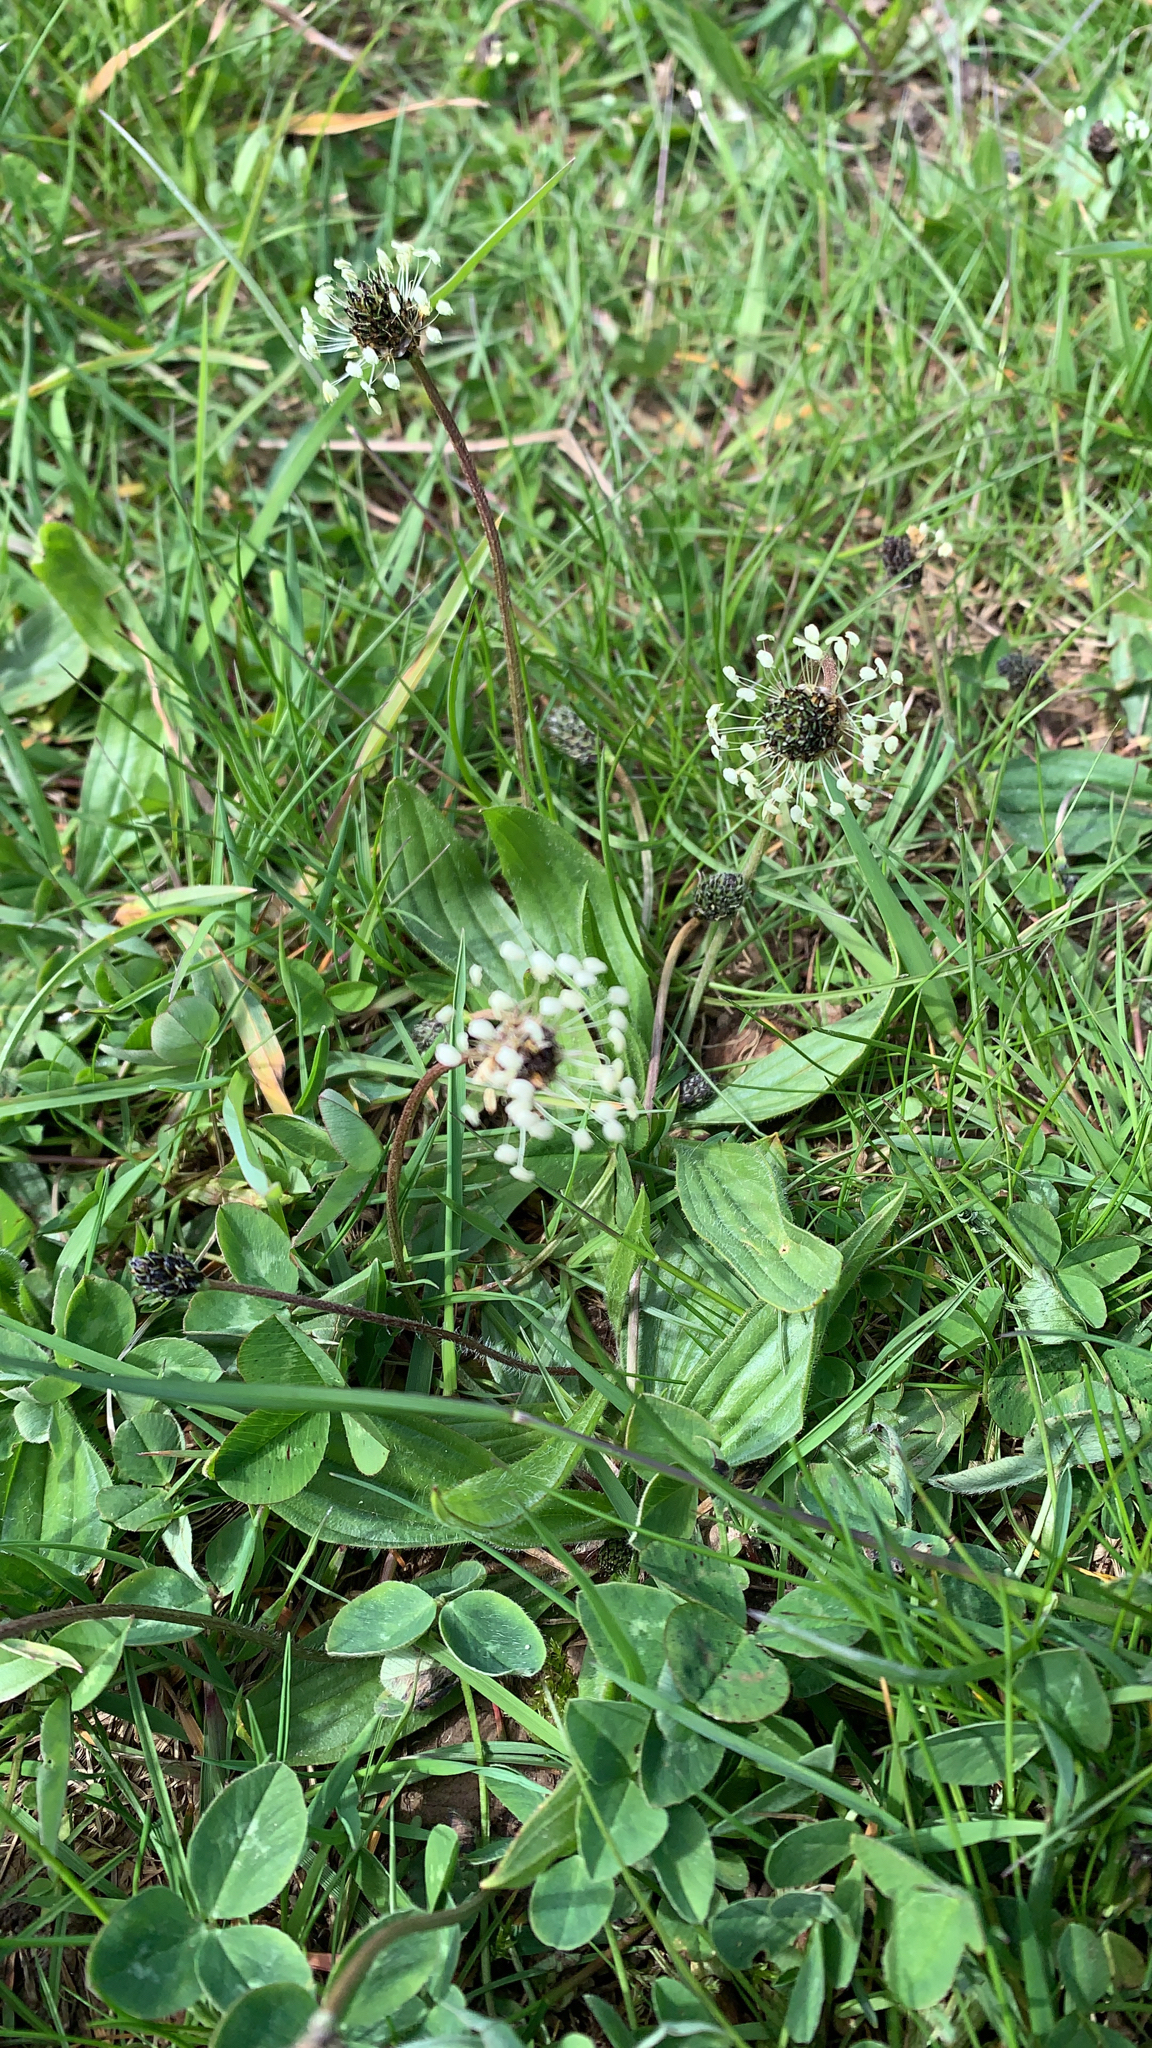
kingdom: Plantae
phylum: Tracheophyta
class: Magnoliopsida
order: Lamiales
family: Plantaginaceae
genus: Plantago
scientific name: Plantago lanceolata
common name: Ribwort plantain
